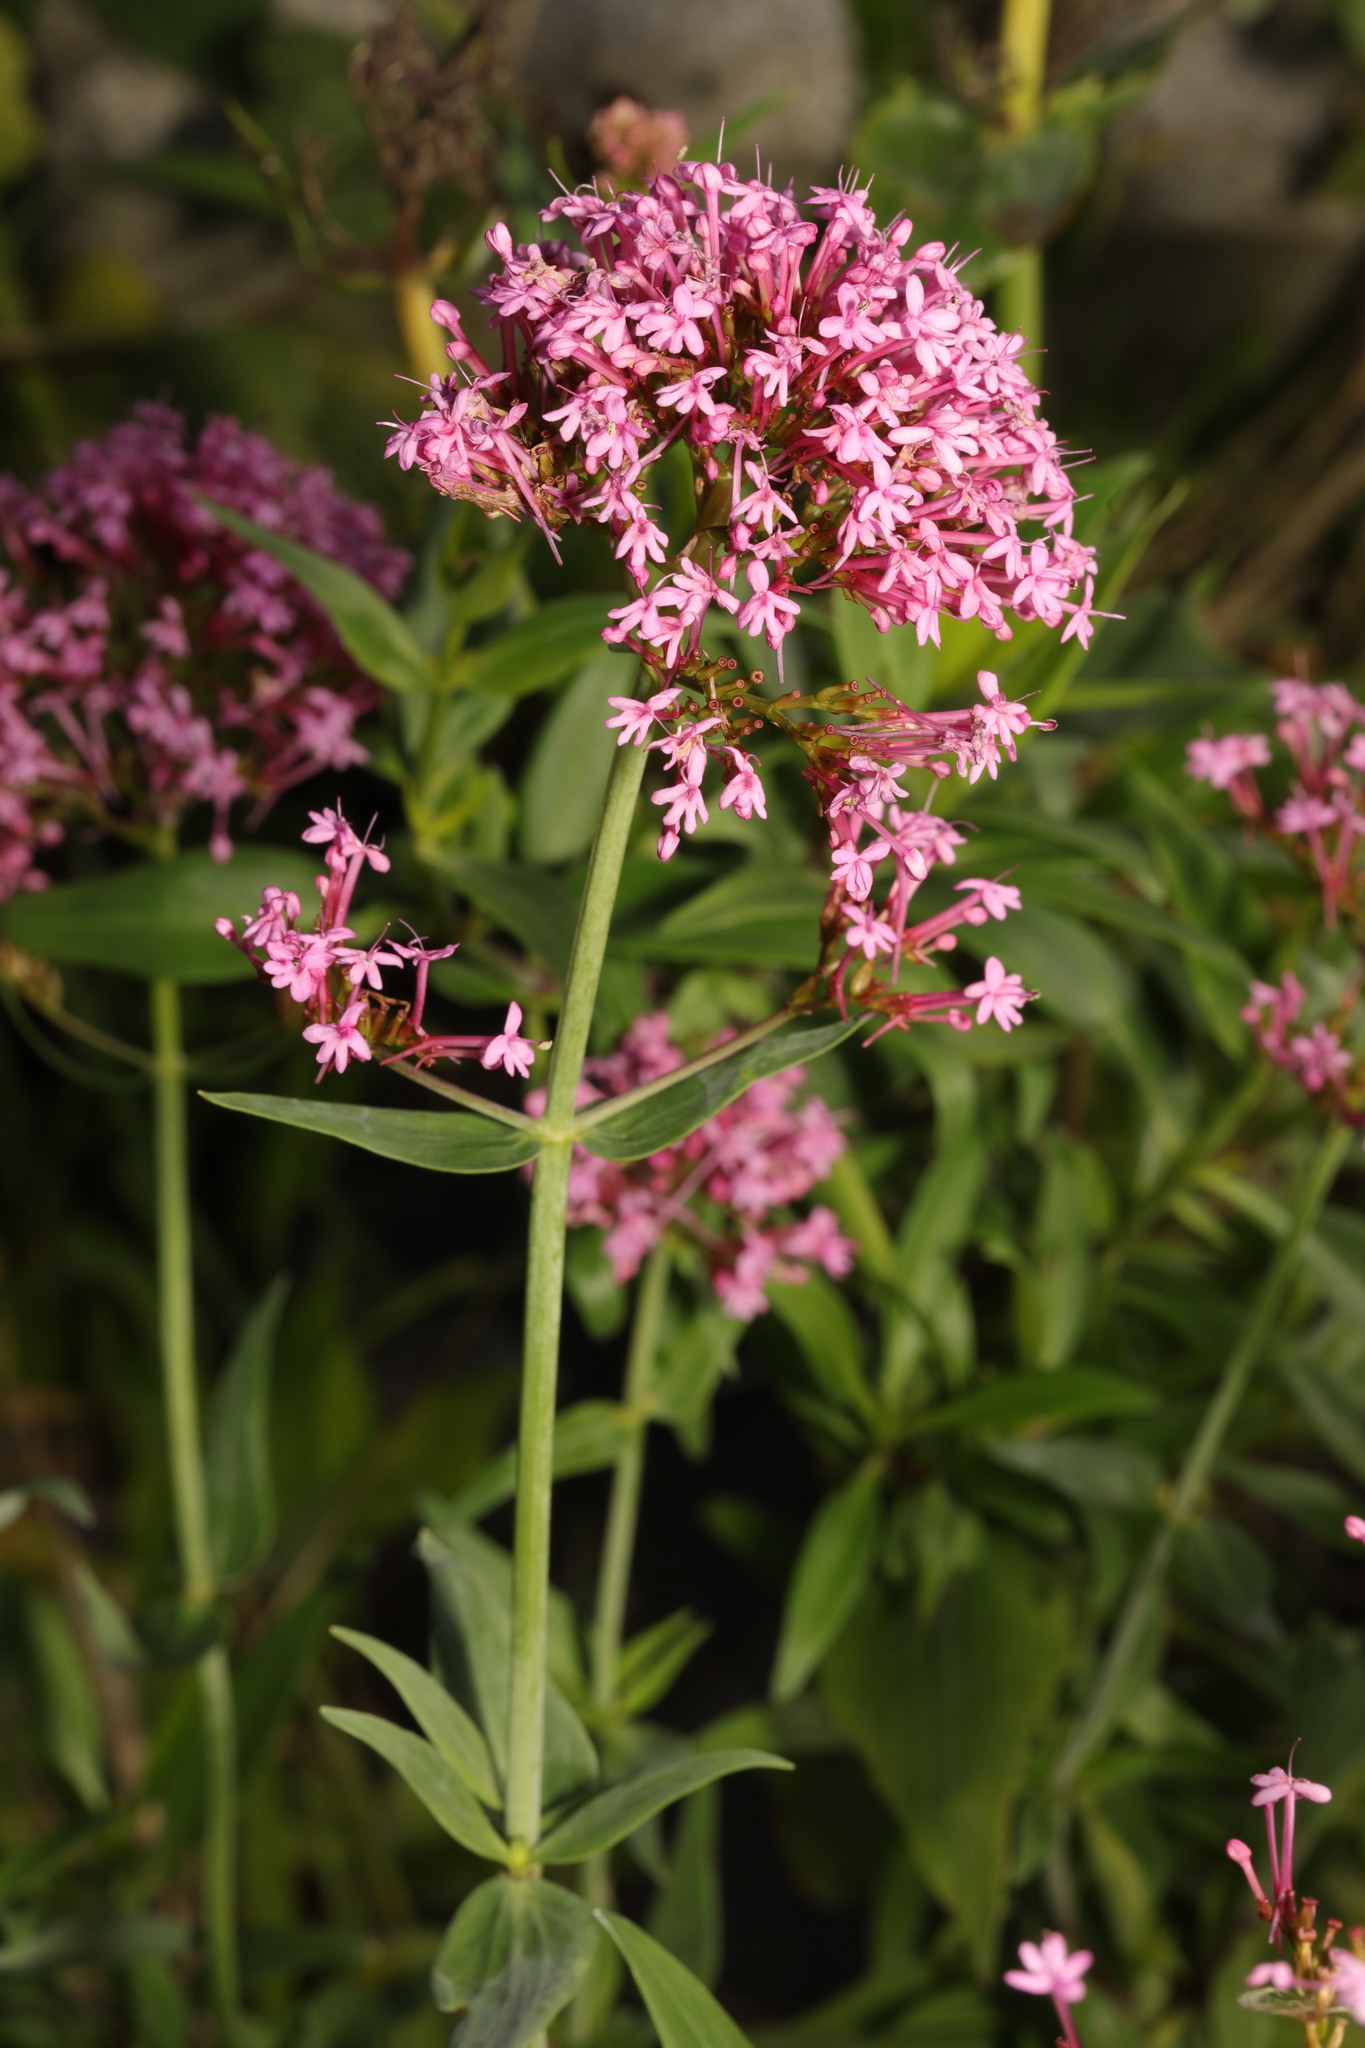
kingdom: Plantae
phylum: Tracheophyta
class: Magnoliopsida
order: Dipsacales
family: Caprifoliaceae
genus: Centranthus
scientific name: Centranthus ruber
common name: Red valerian
